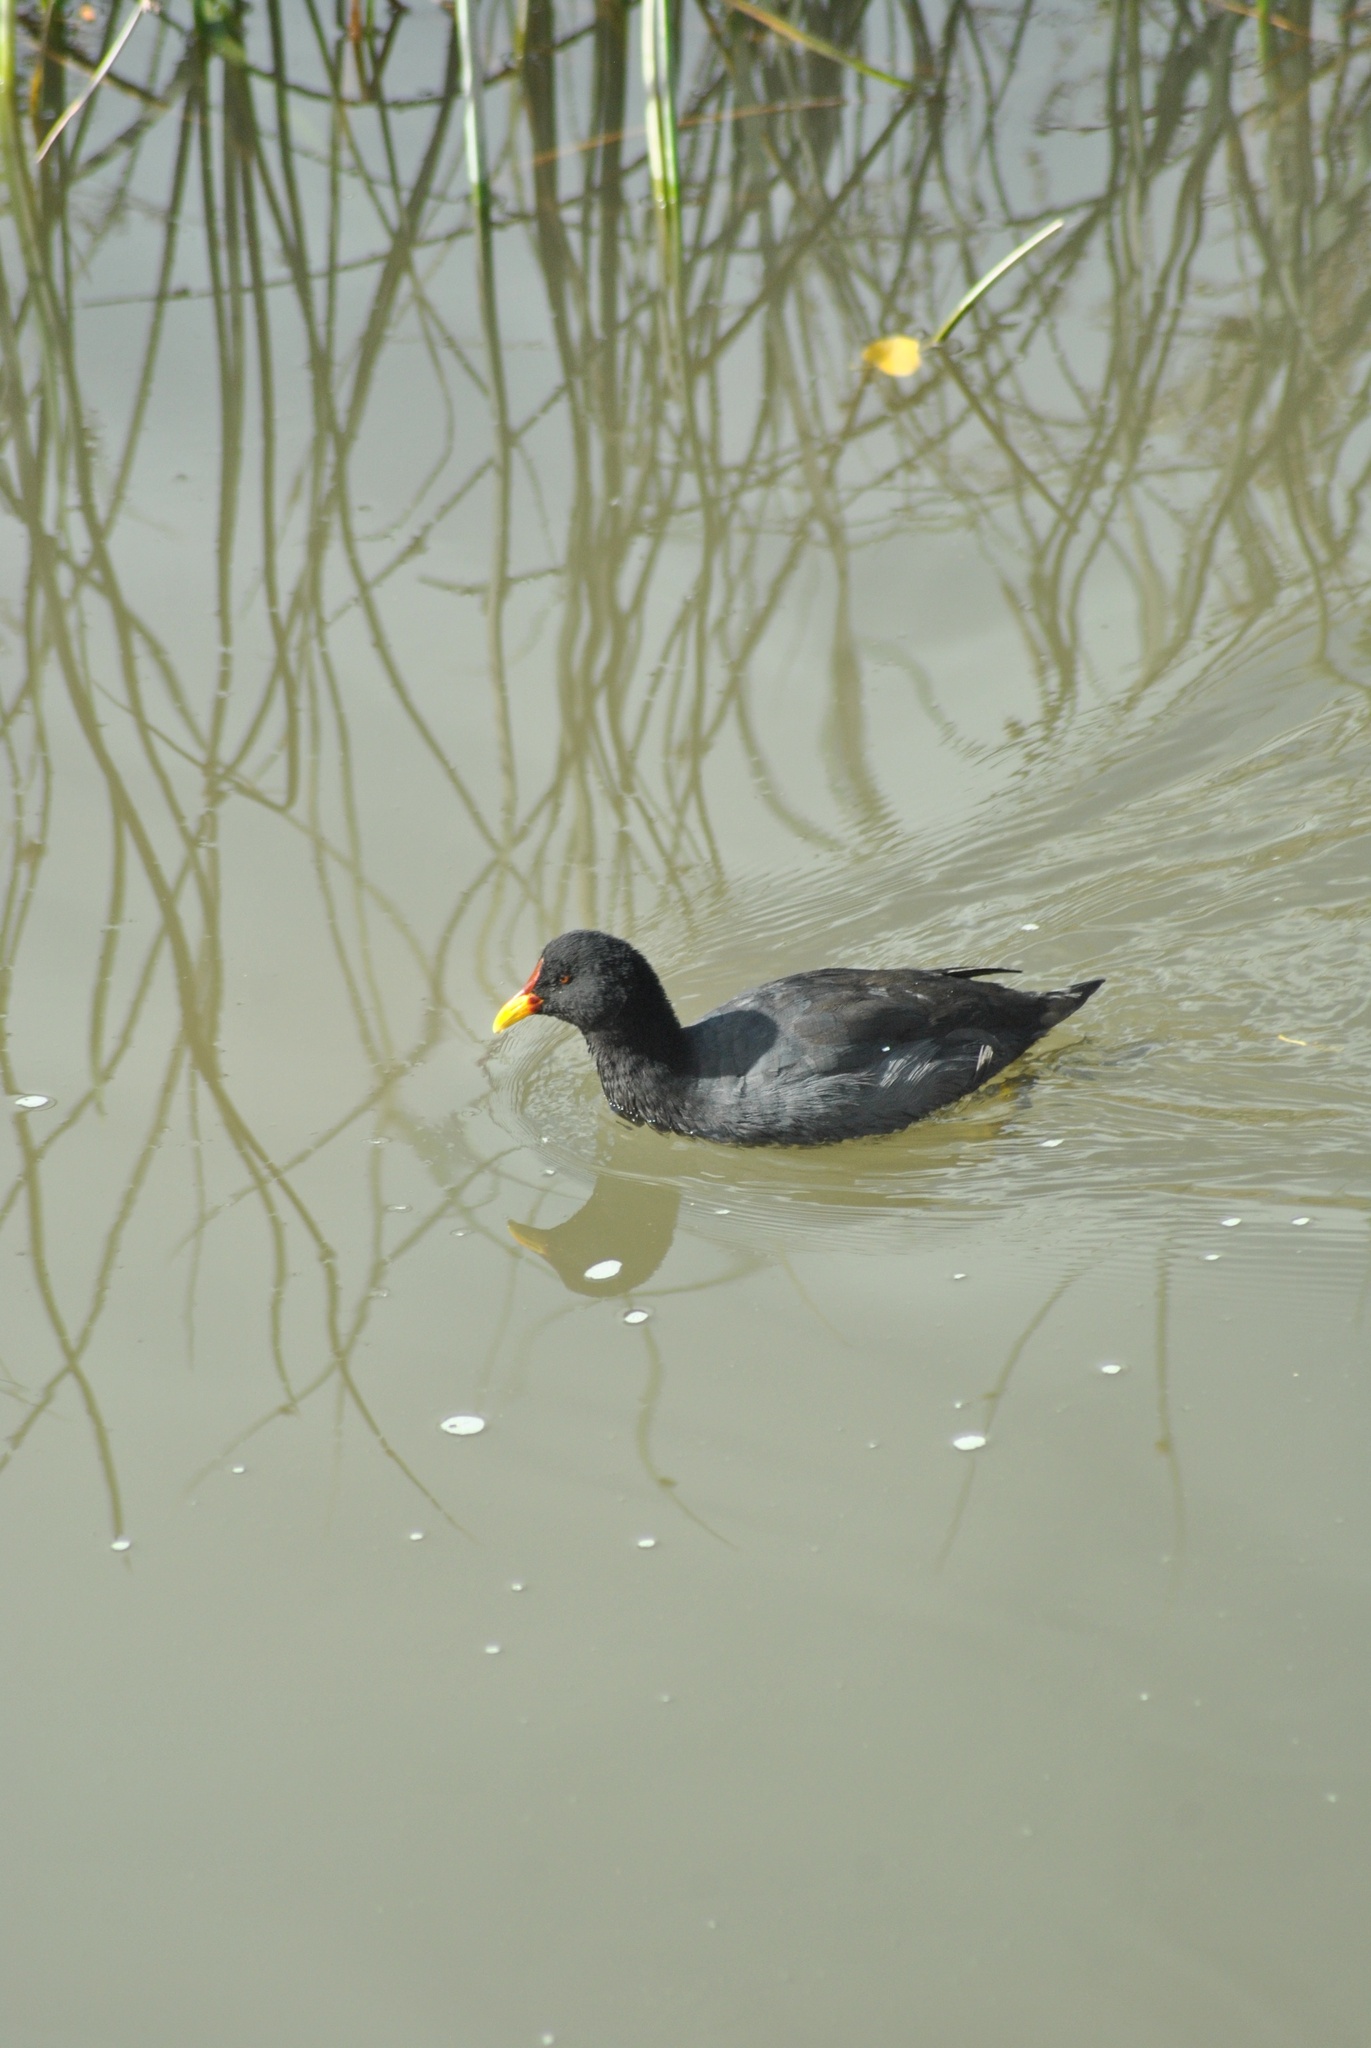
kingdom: Animalia
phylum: Chordata
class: Aves
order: Gruiformes
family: Rallidae
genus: Fulica
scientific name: Fulica rufifrons
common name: Red-fronted coot
